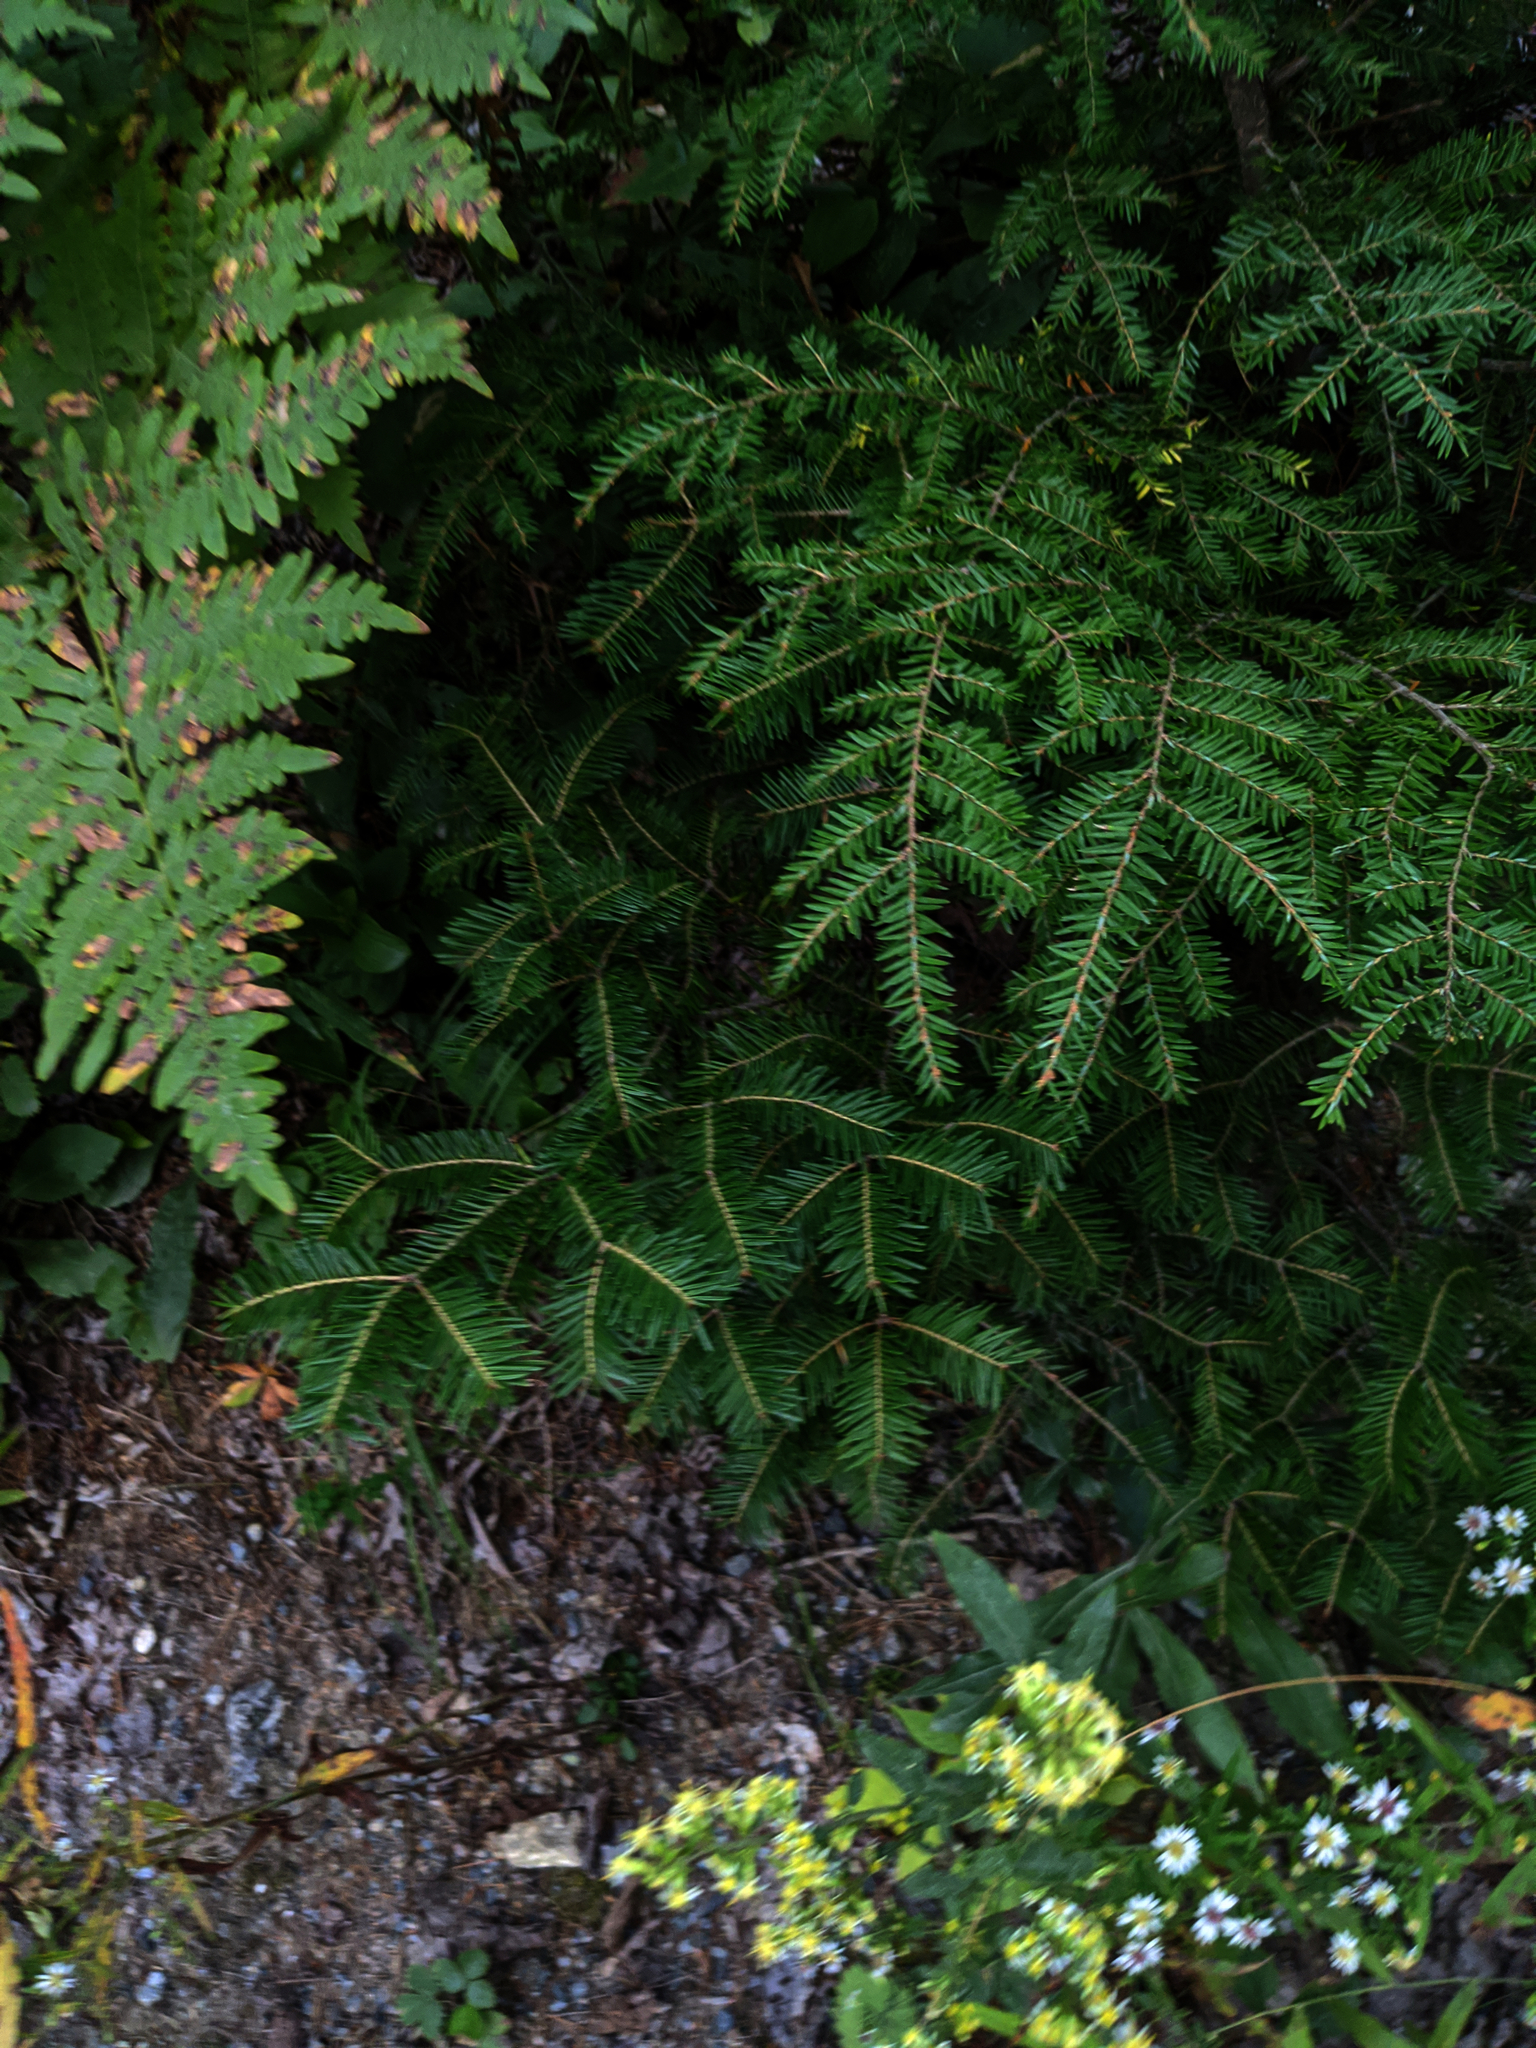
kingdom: Plantae
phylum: Tracheophyta
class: Pinopsida
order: Pinales
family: Pinaceae
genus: Abies
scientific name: Abies balsamea
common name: Balsam fir
